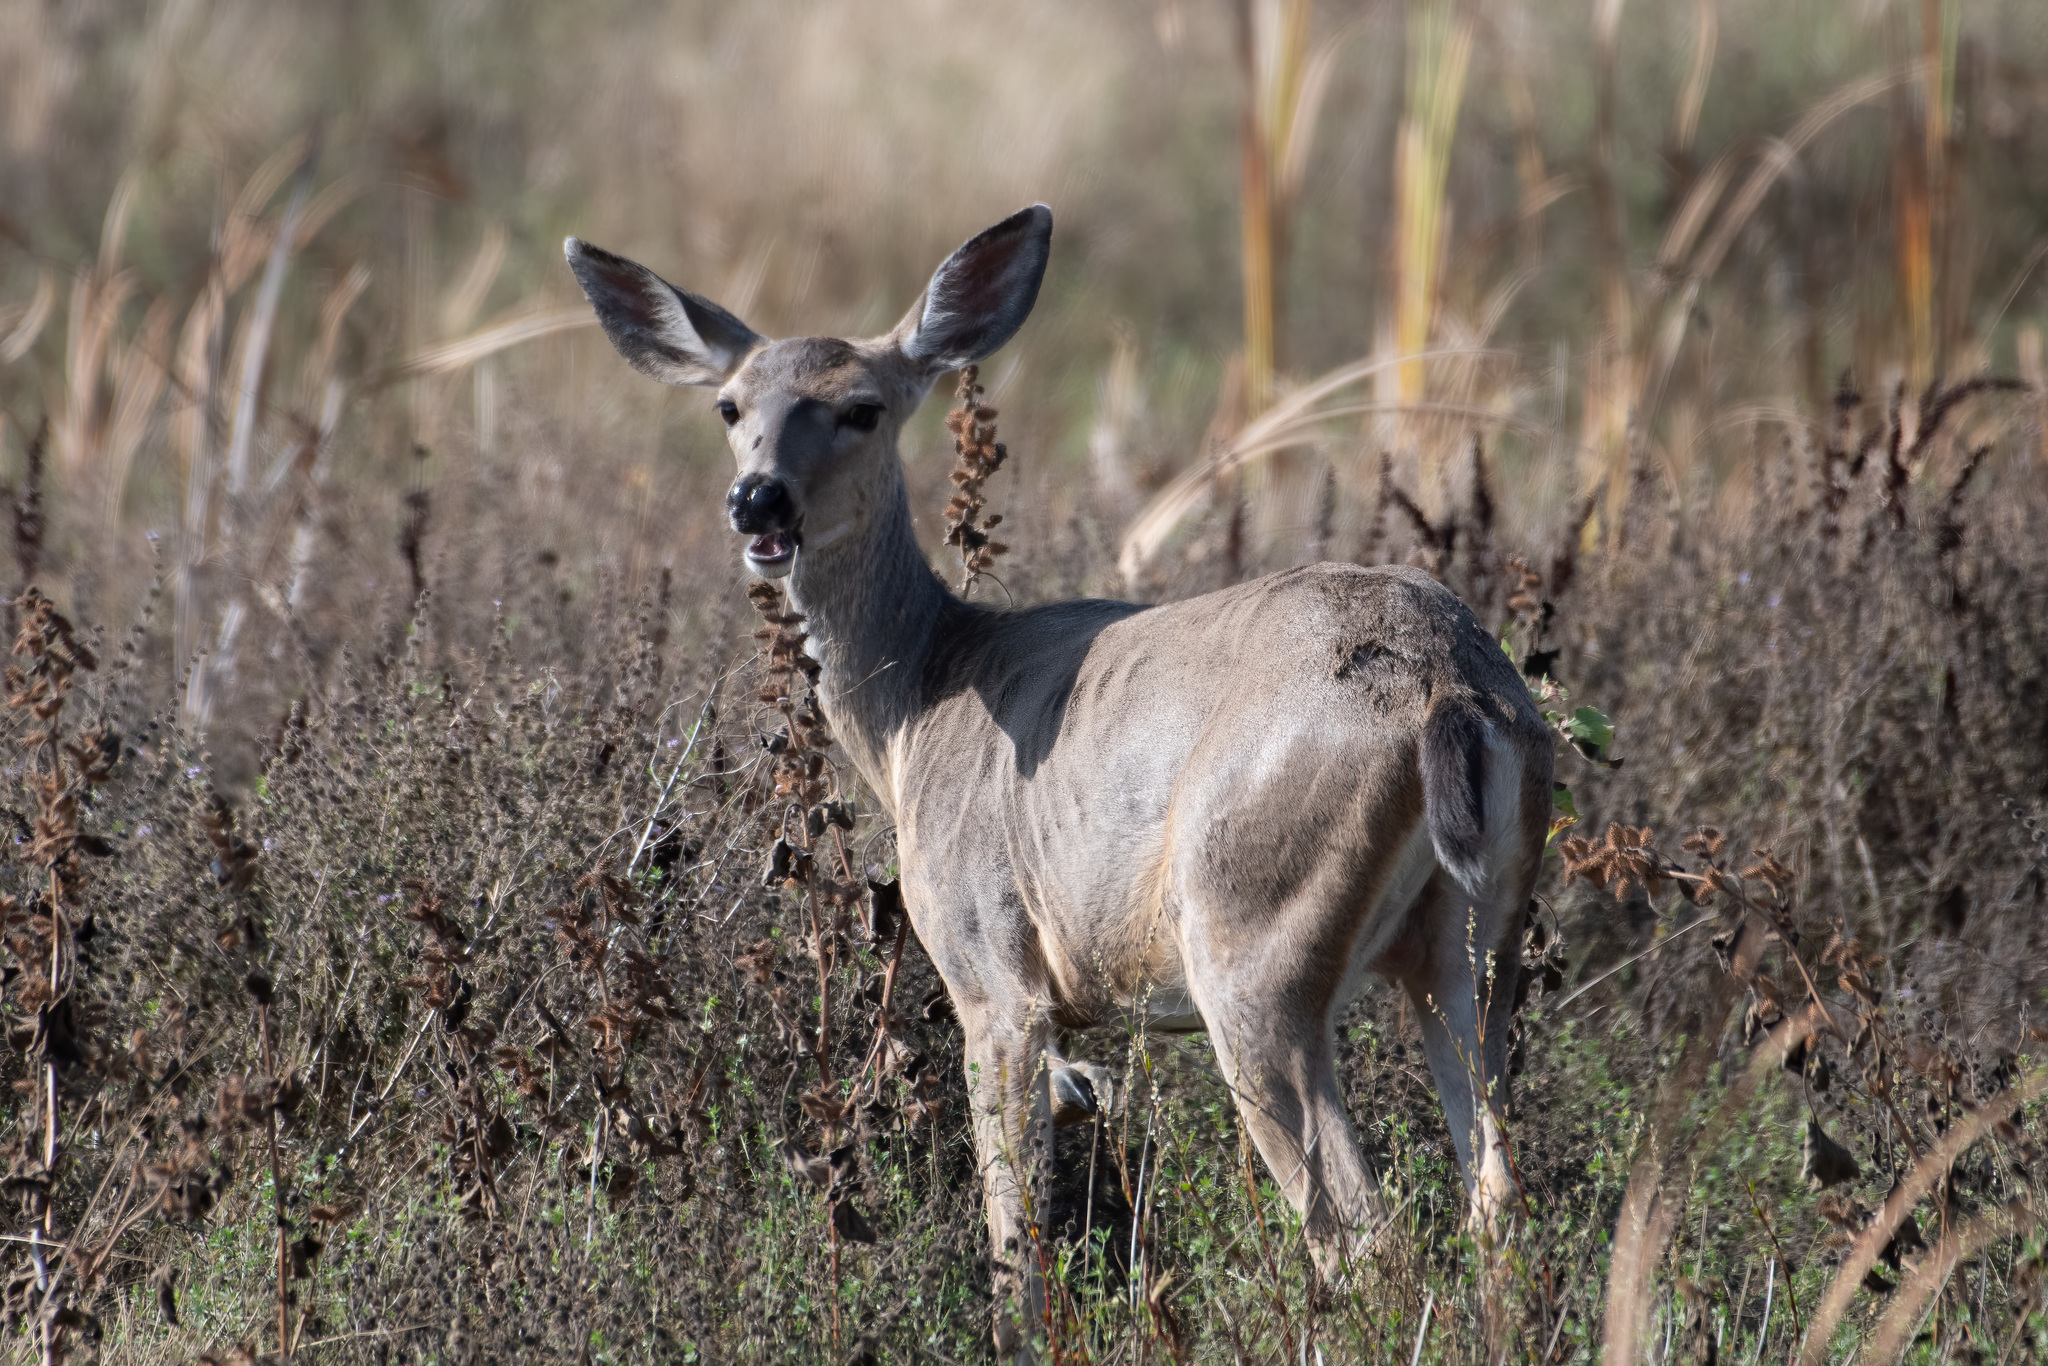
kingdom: Animalia
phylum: Chordata
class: Mammalia
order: Artiodactyla
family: Cervidae
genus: Odocoileus
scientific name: Odocoileus hemionus
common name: Mule deer
